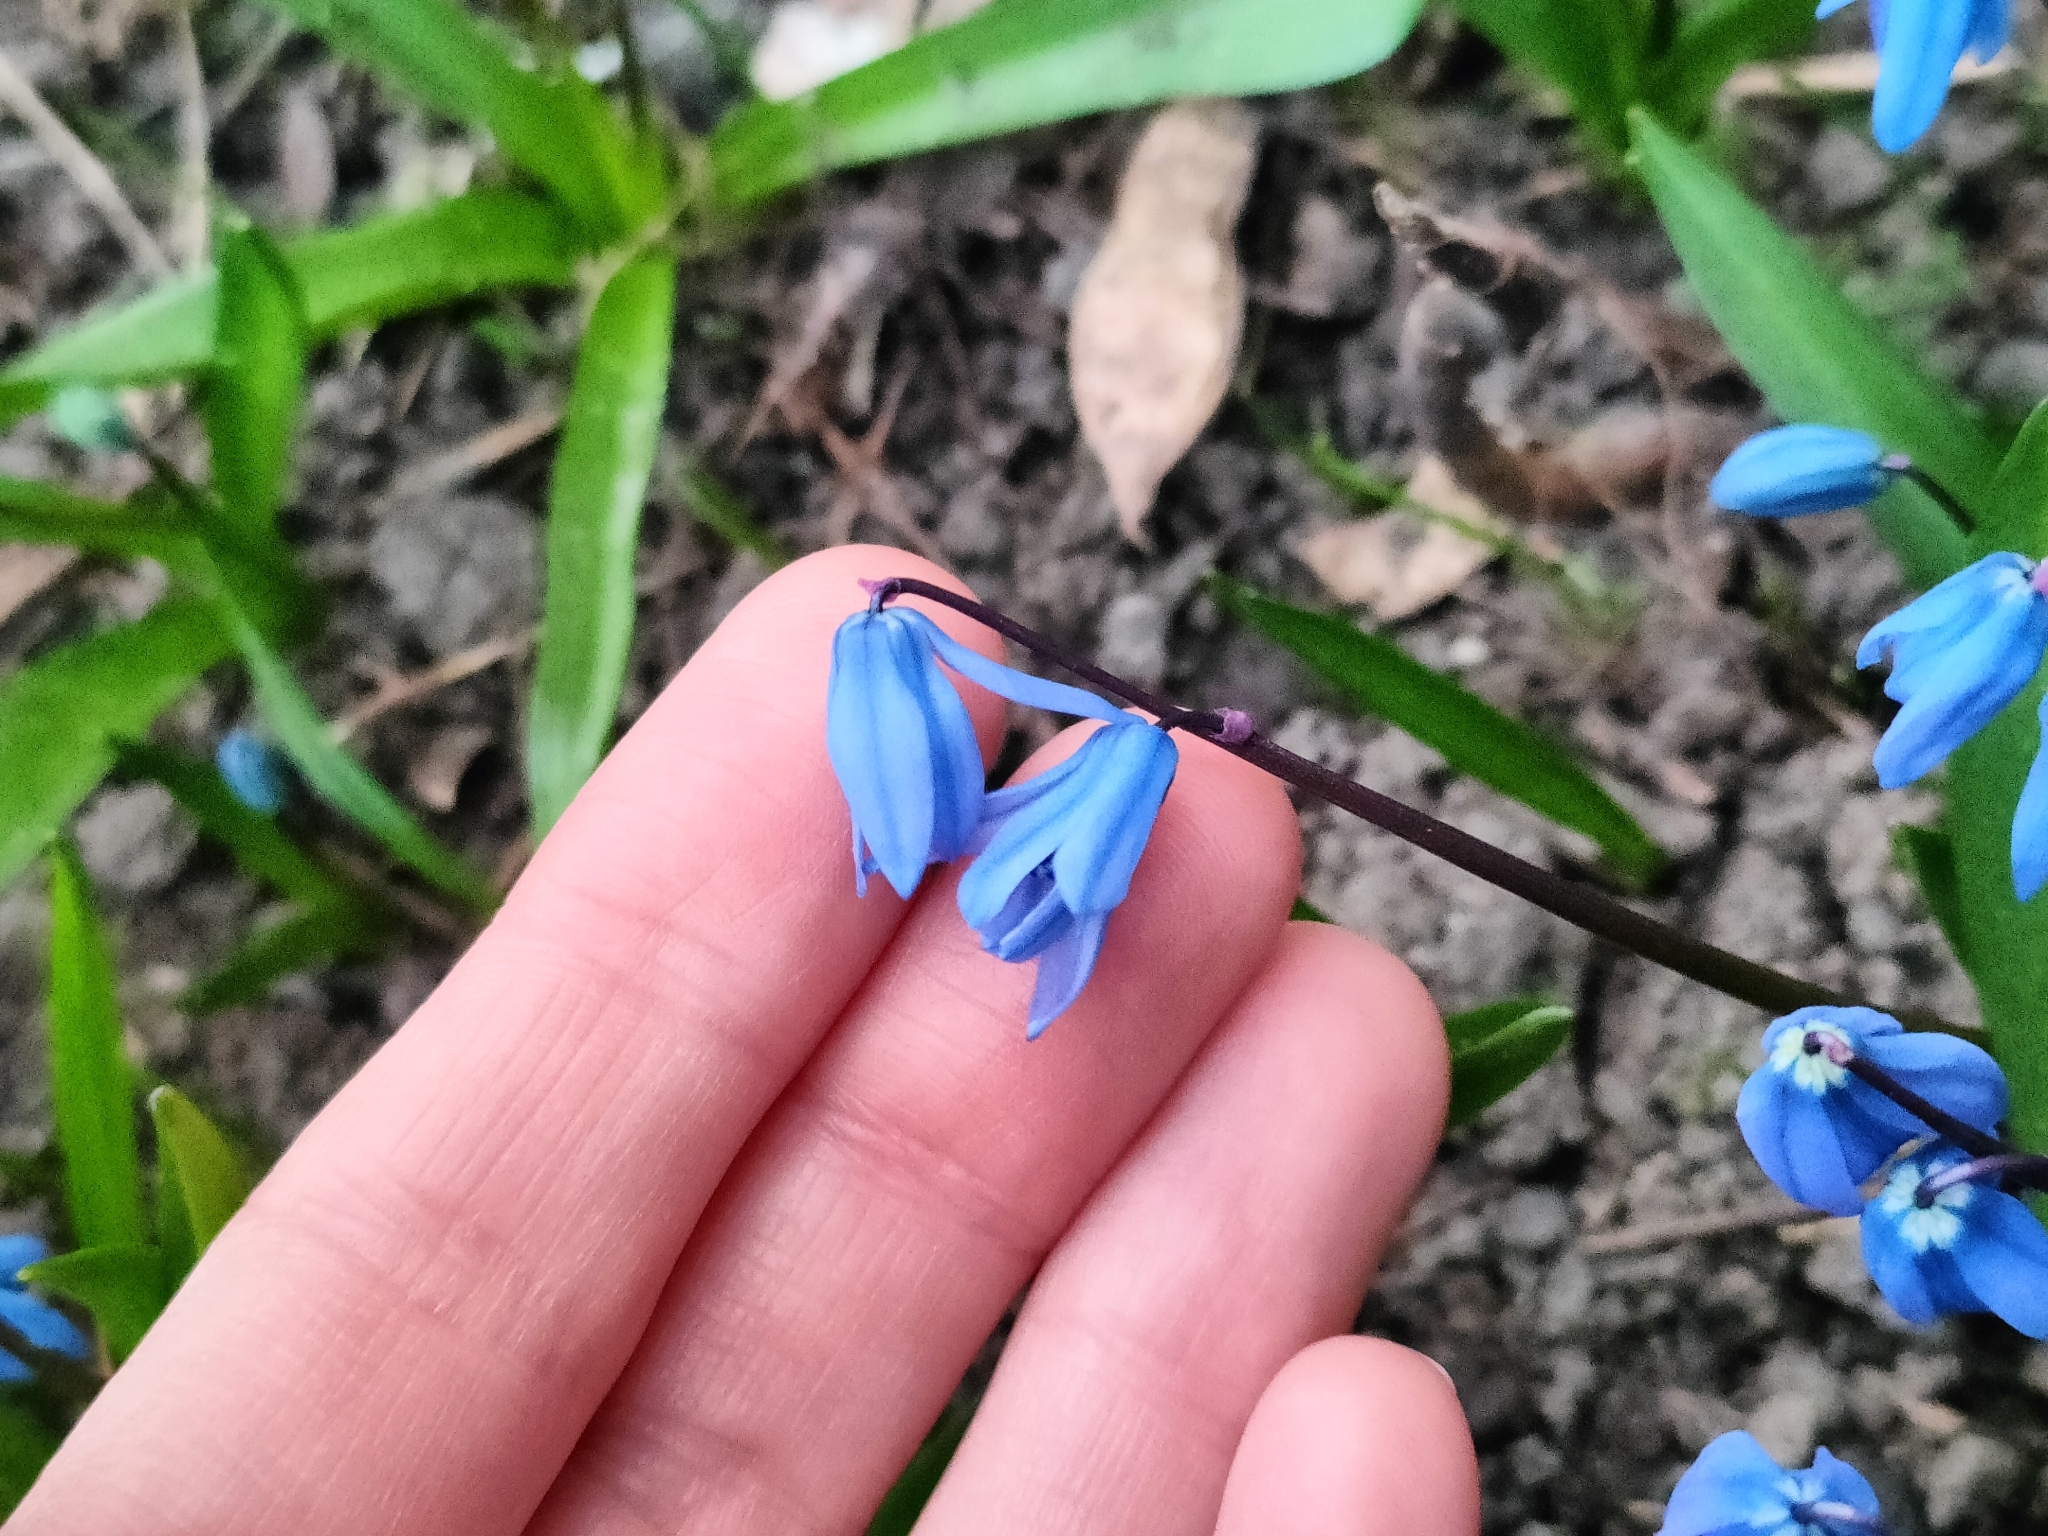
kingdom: Plantae
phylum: Tracheophyta
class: Liliopsida
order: Asparagales
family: Asparagaceae
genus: Scilla
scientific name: Scilla siberica
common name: Siberian squill
